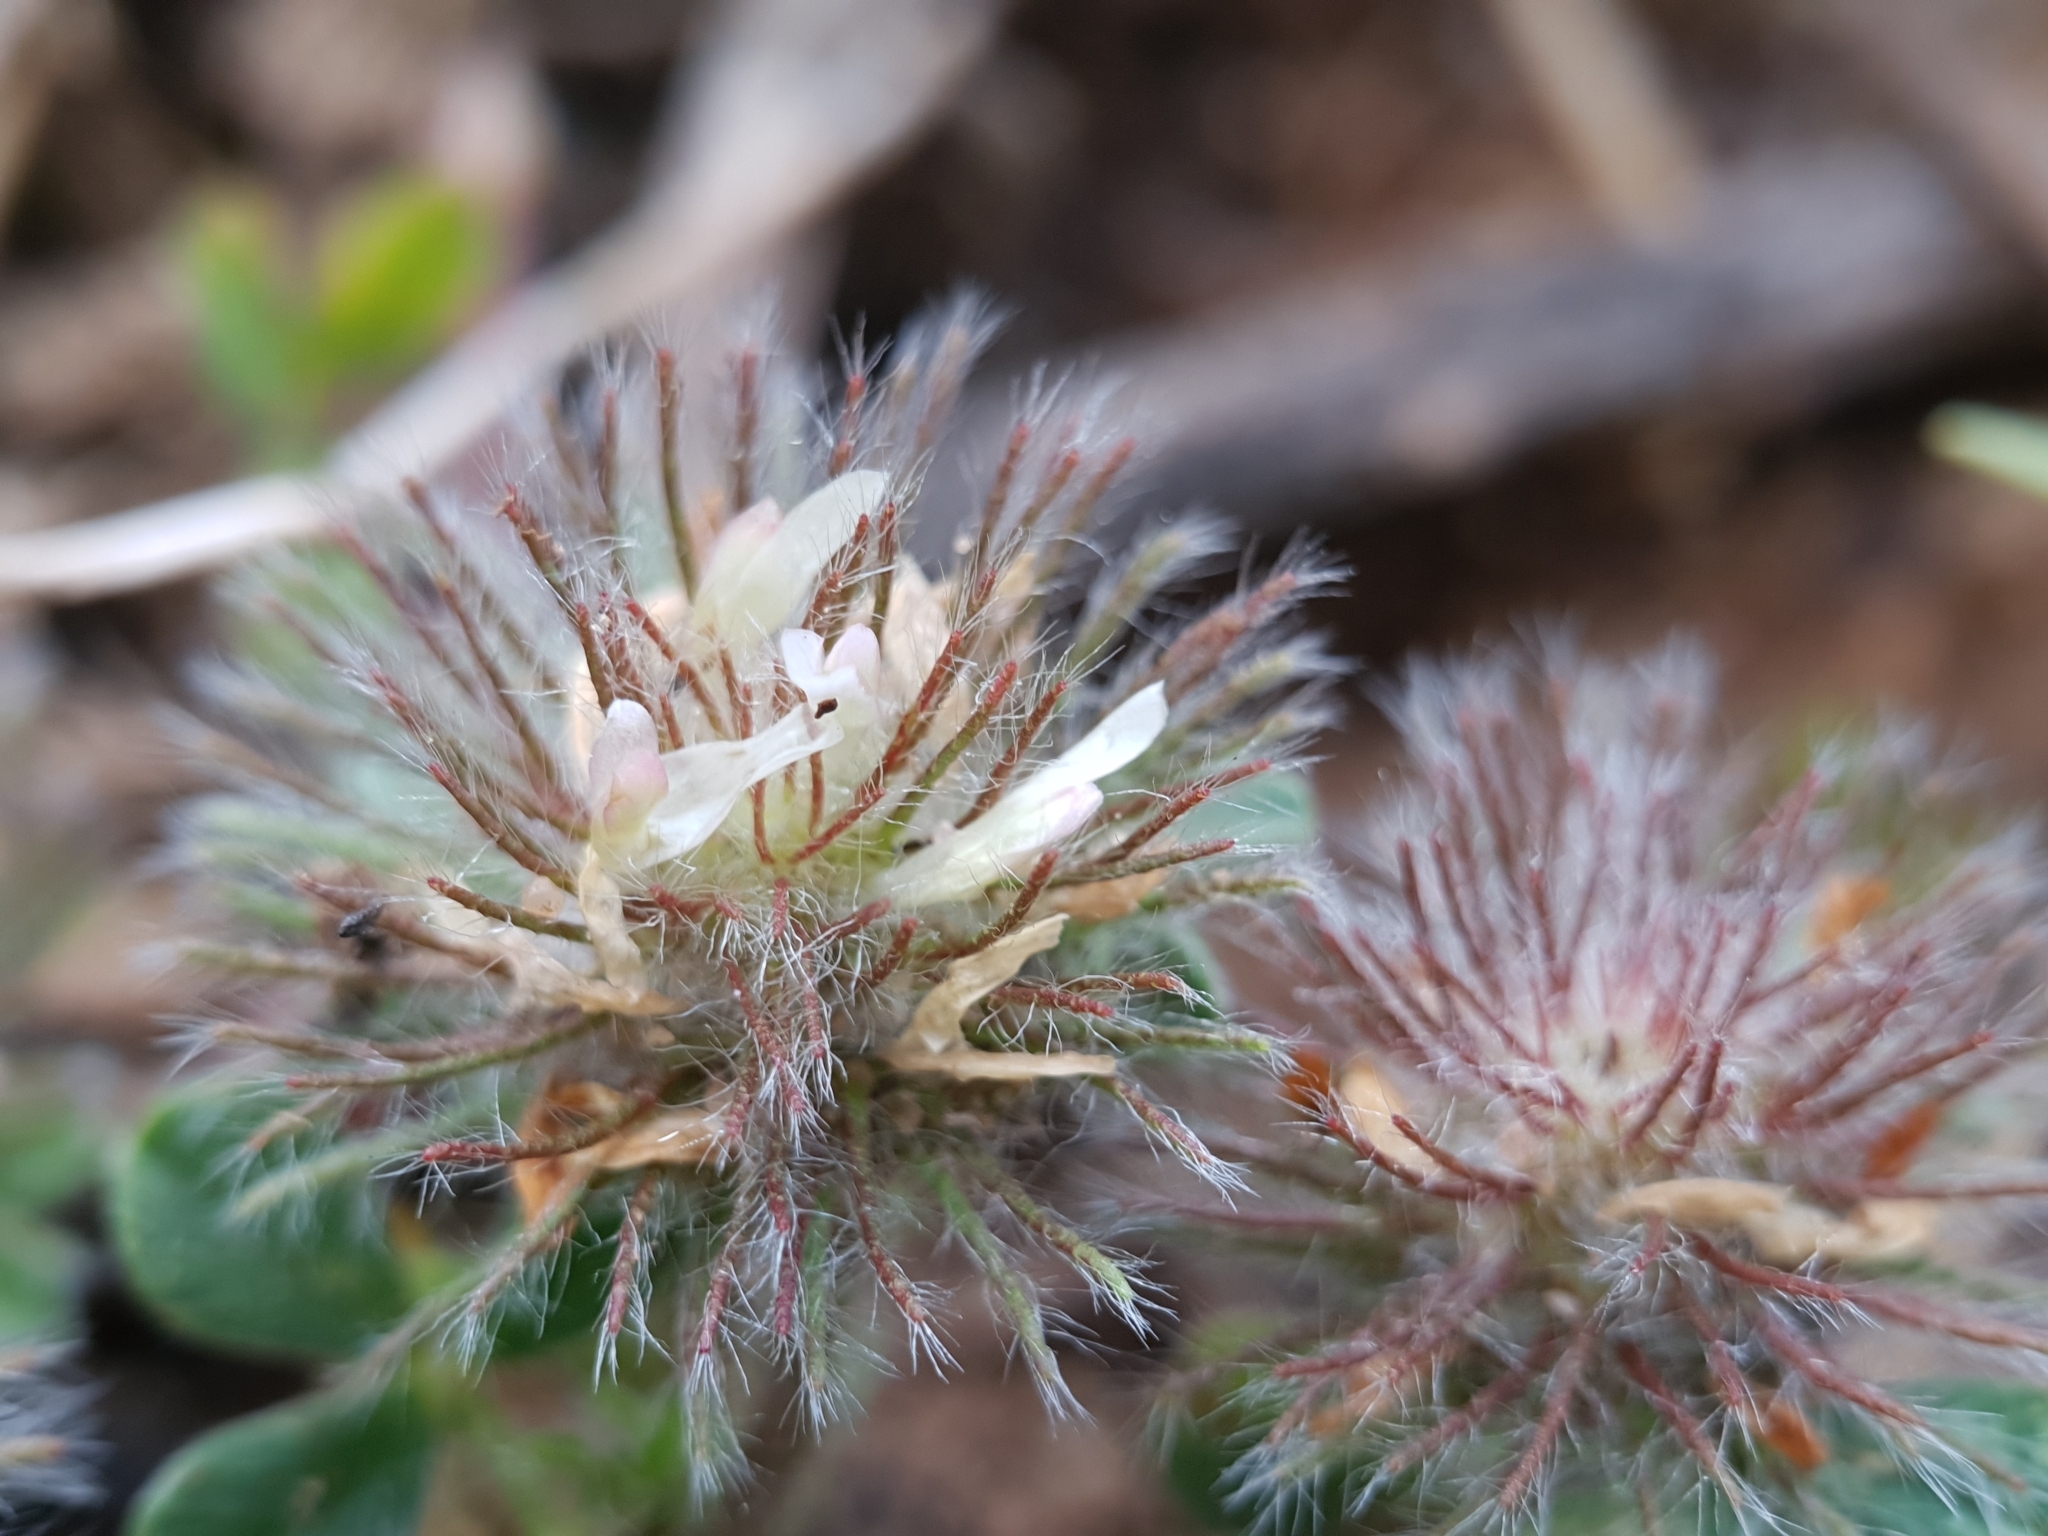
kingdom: Plantae
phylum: Tracheophyta
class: Magnoliopsida
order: Fabales
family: Fabaceae
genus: Trifolium
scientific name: Trifolium cherleri
